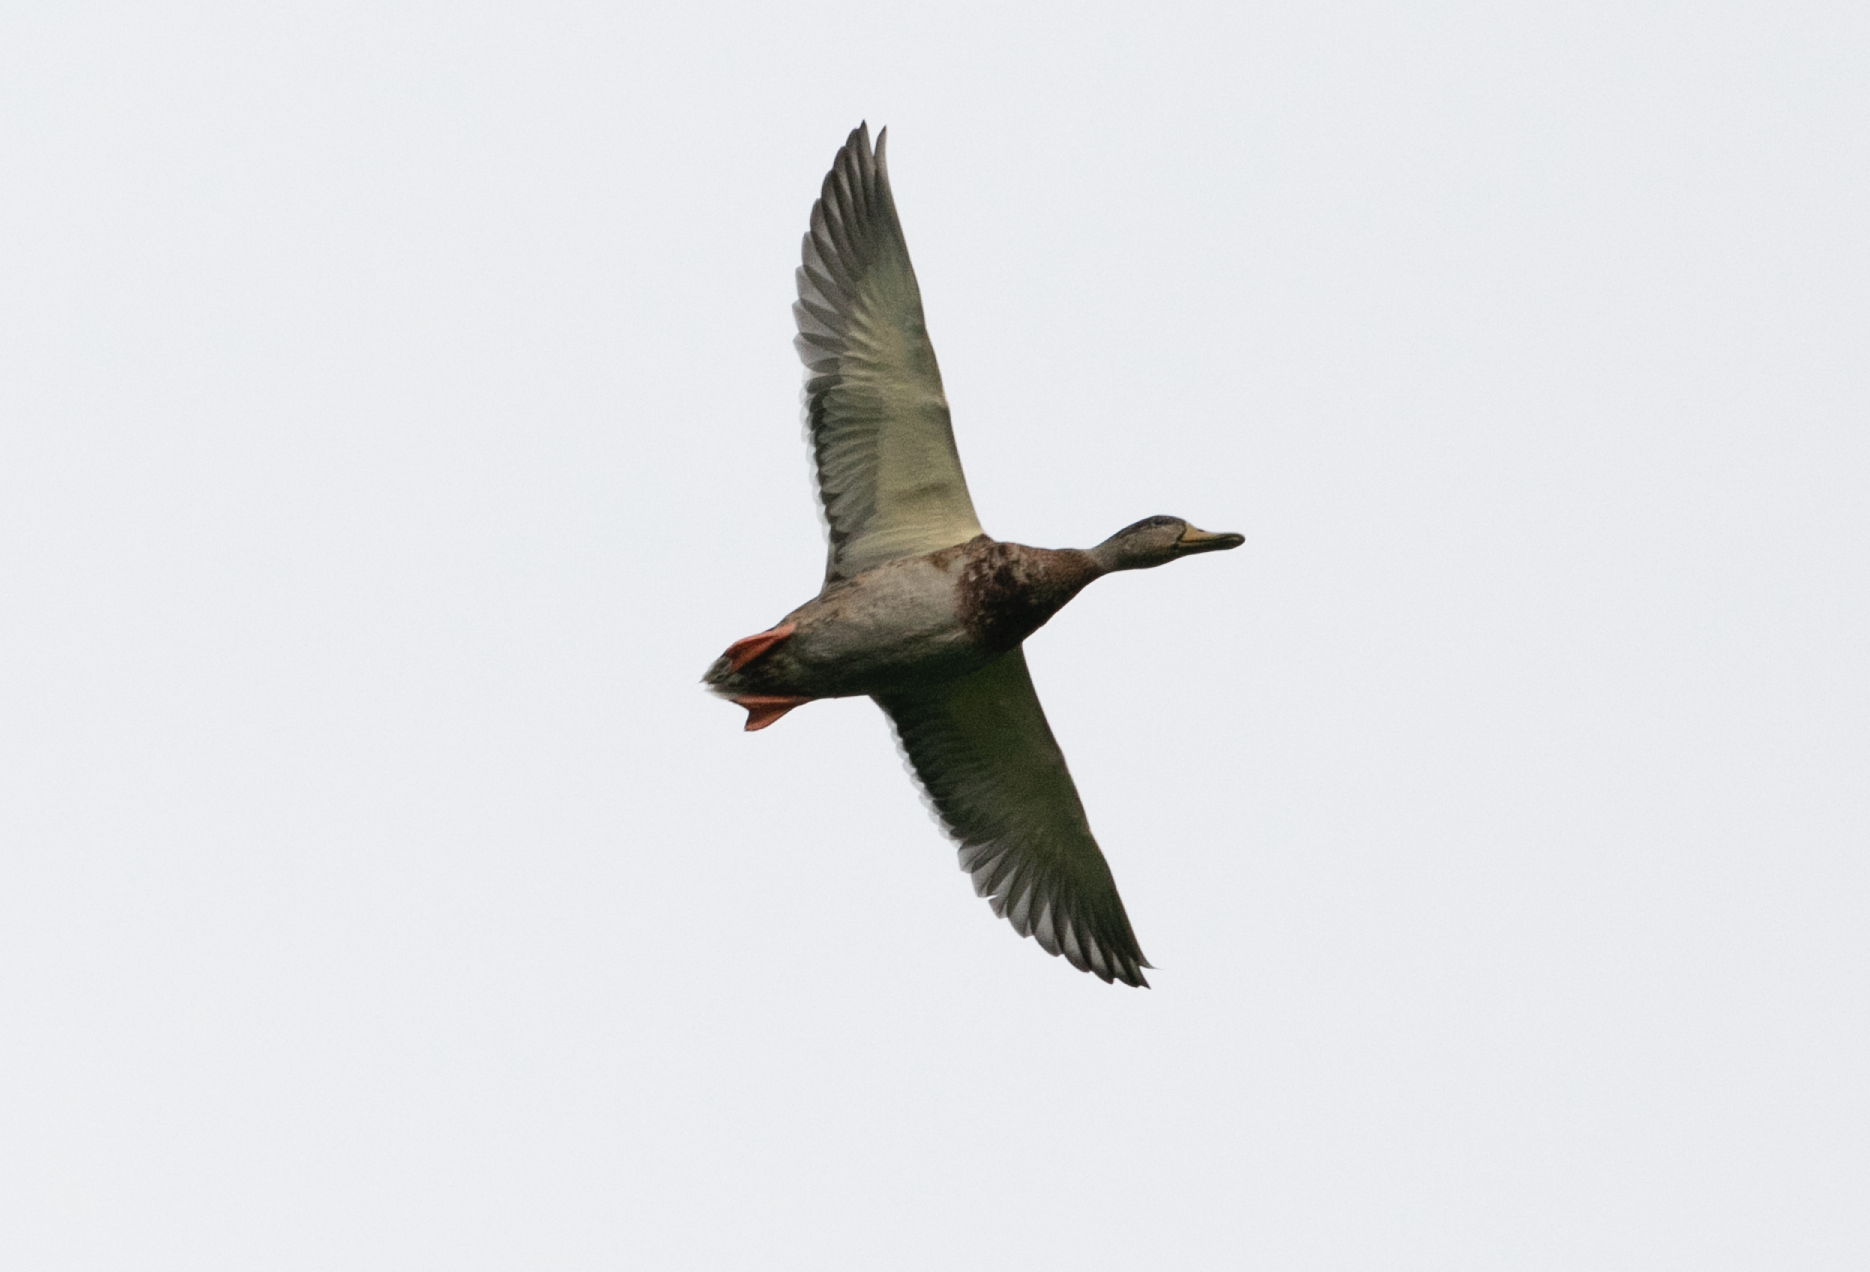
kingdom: Animalia
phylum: Chordata
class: Aves
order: Anseriformes
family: Anatidae
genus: Anas
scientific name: Anas platyrhynchos
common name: Mallard
